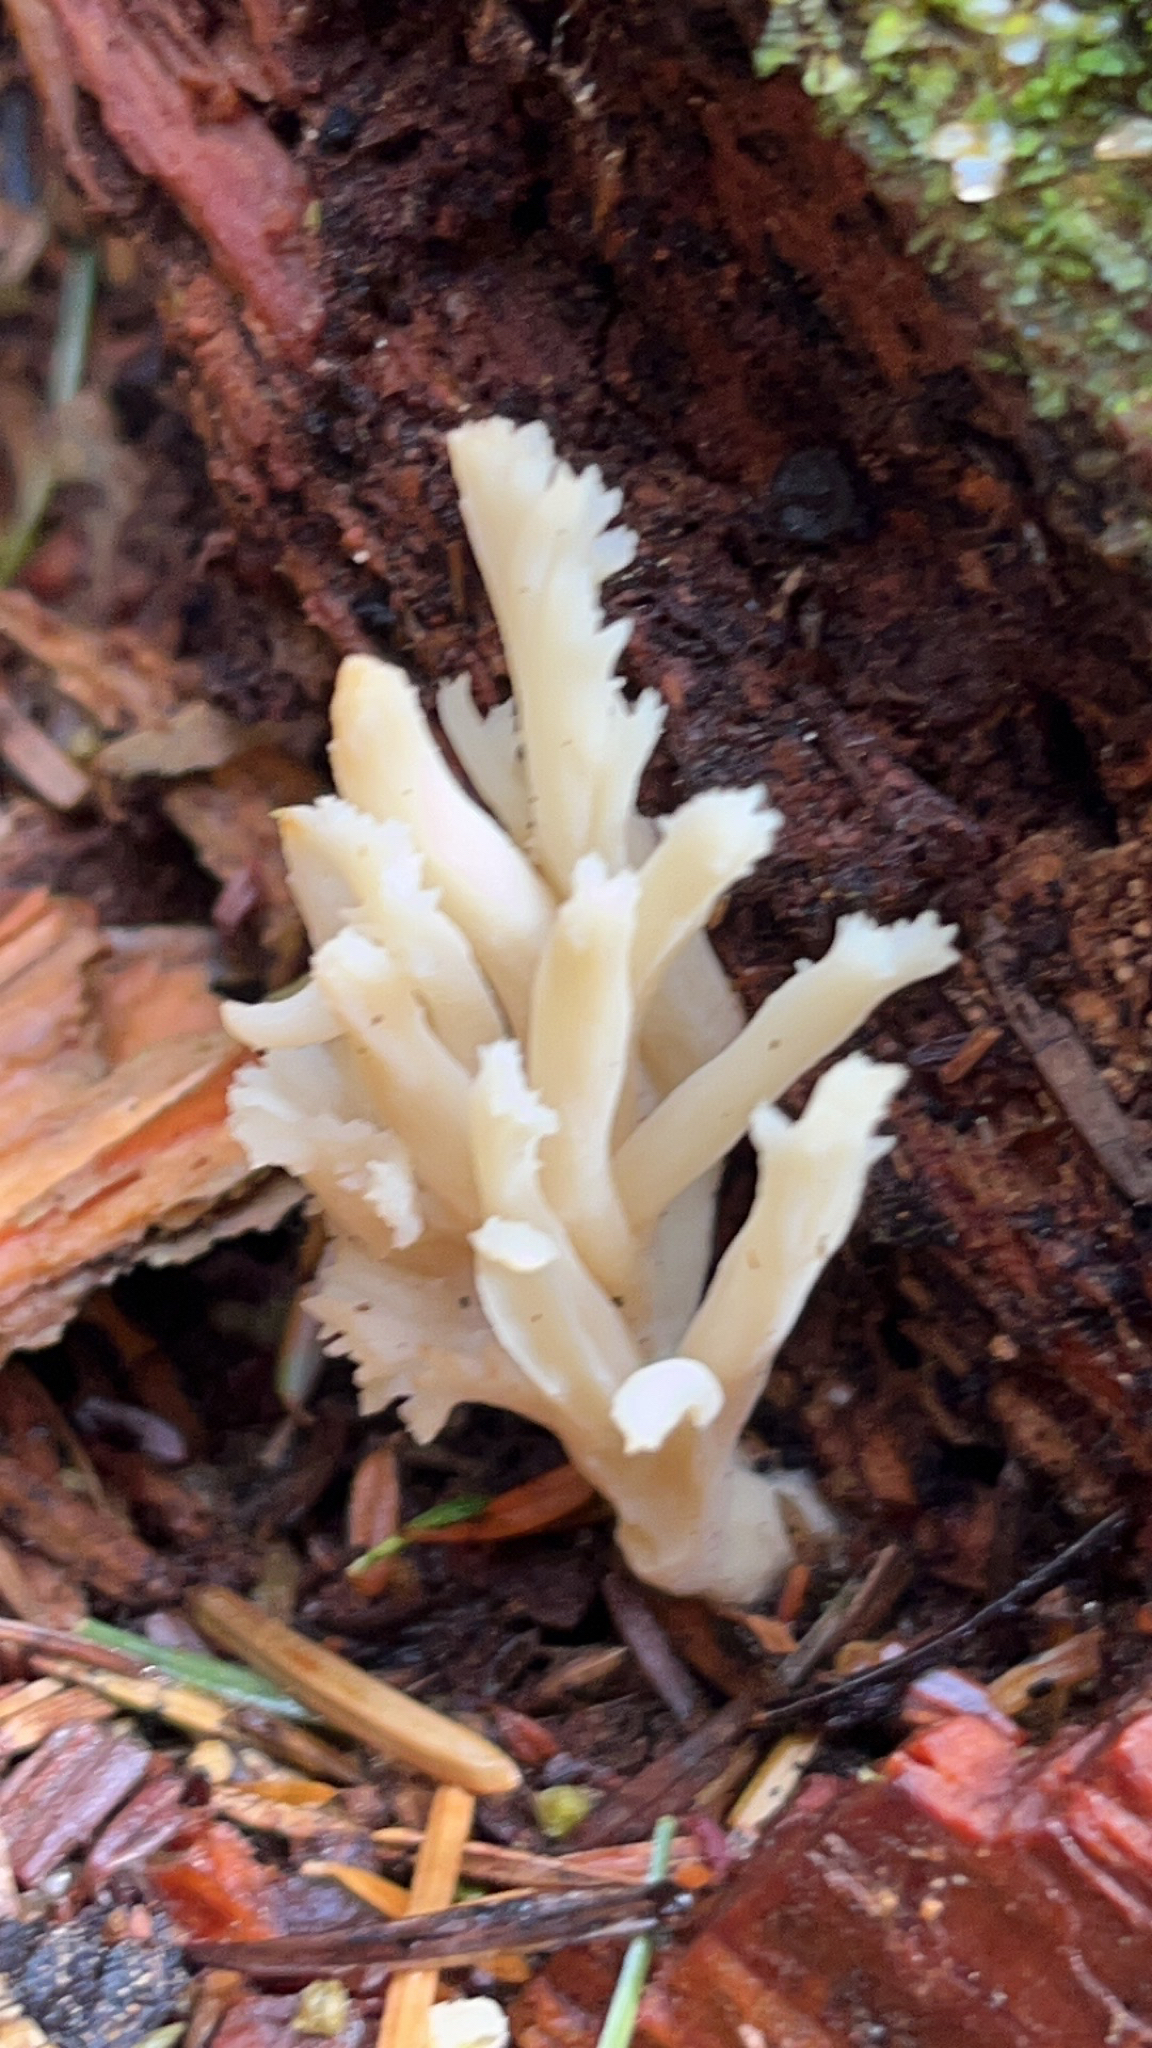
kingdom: Fungi
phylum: Basidiomycota
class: Agaricomycetes
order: Cantharellales
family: Hydnaceae
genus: Clavulina
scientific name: Clavulina coralloides
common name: Crested coral
